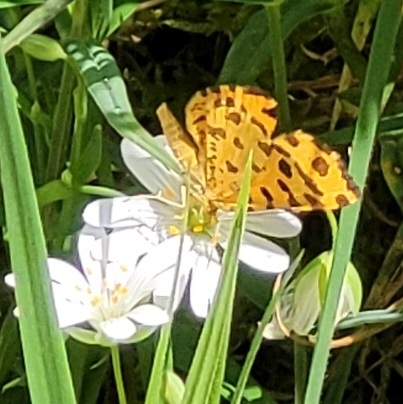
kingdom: Animalia
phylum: Arthropoda
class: Insecta
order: Lepidoptera
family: Geometridae
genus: Pseudopanthera
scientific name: Pseudopanthera macularia
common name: Speckled yellow
